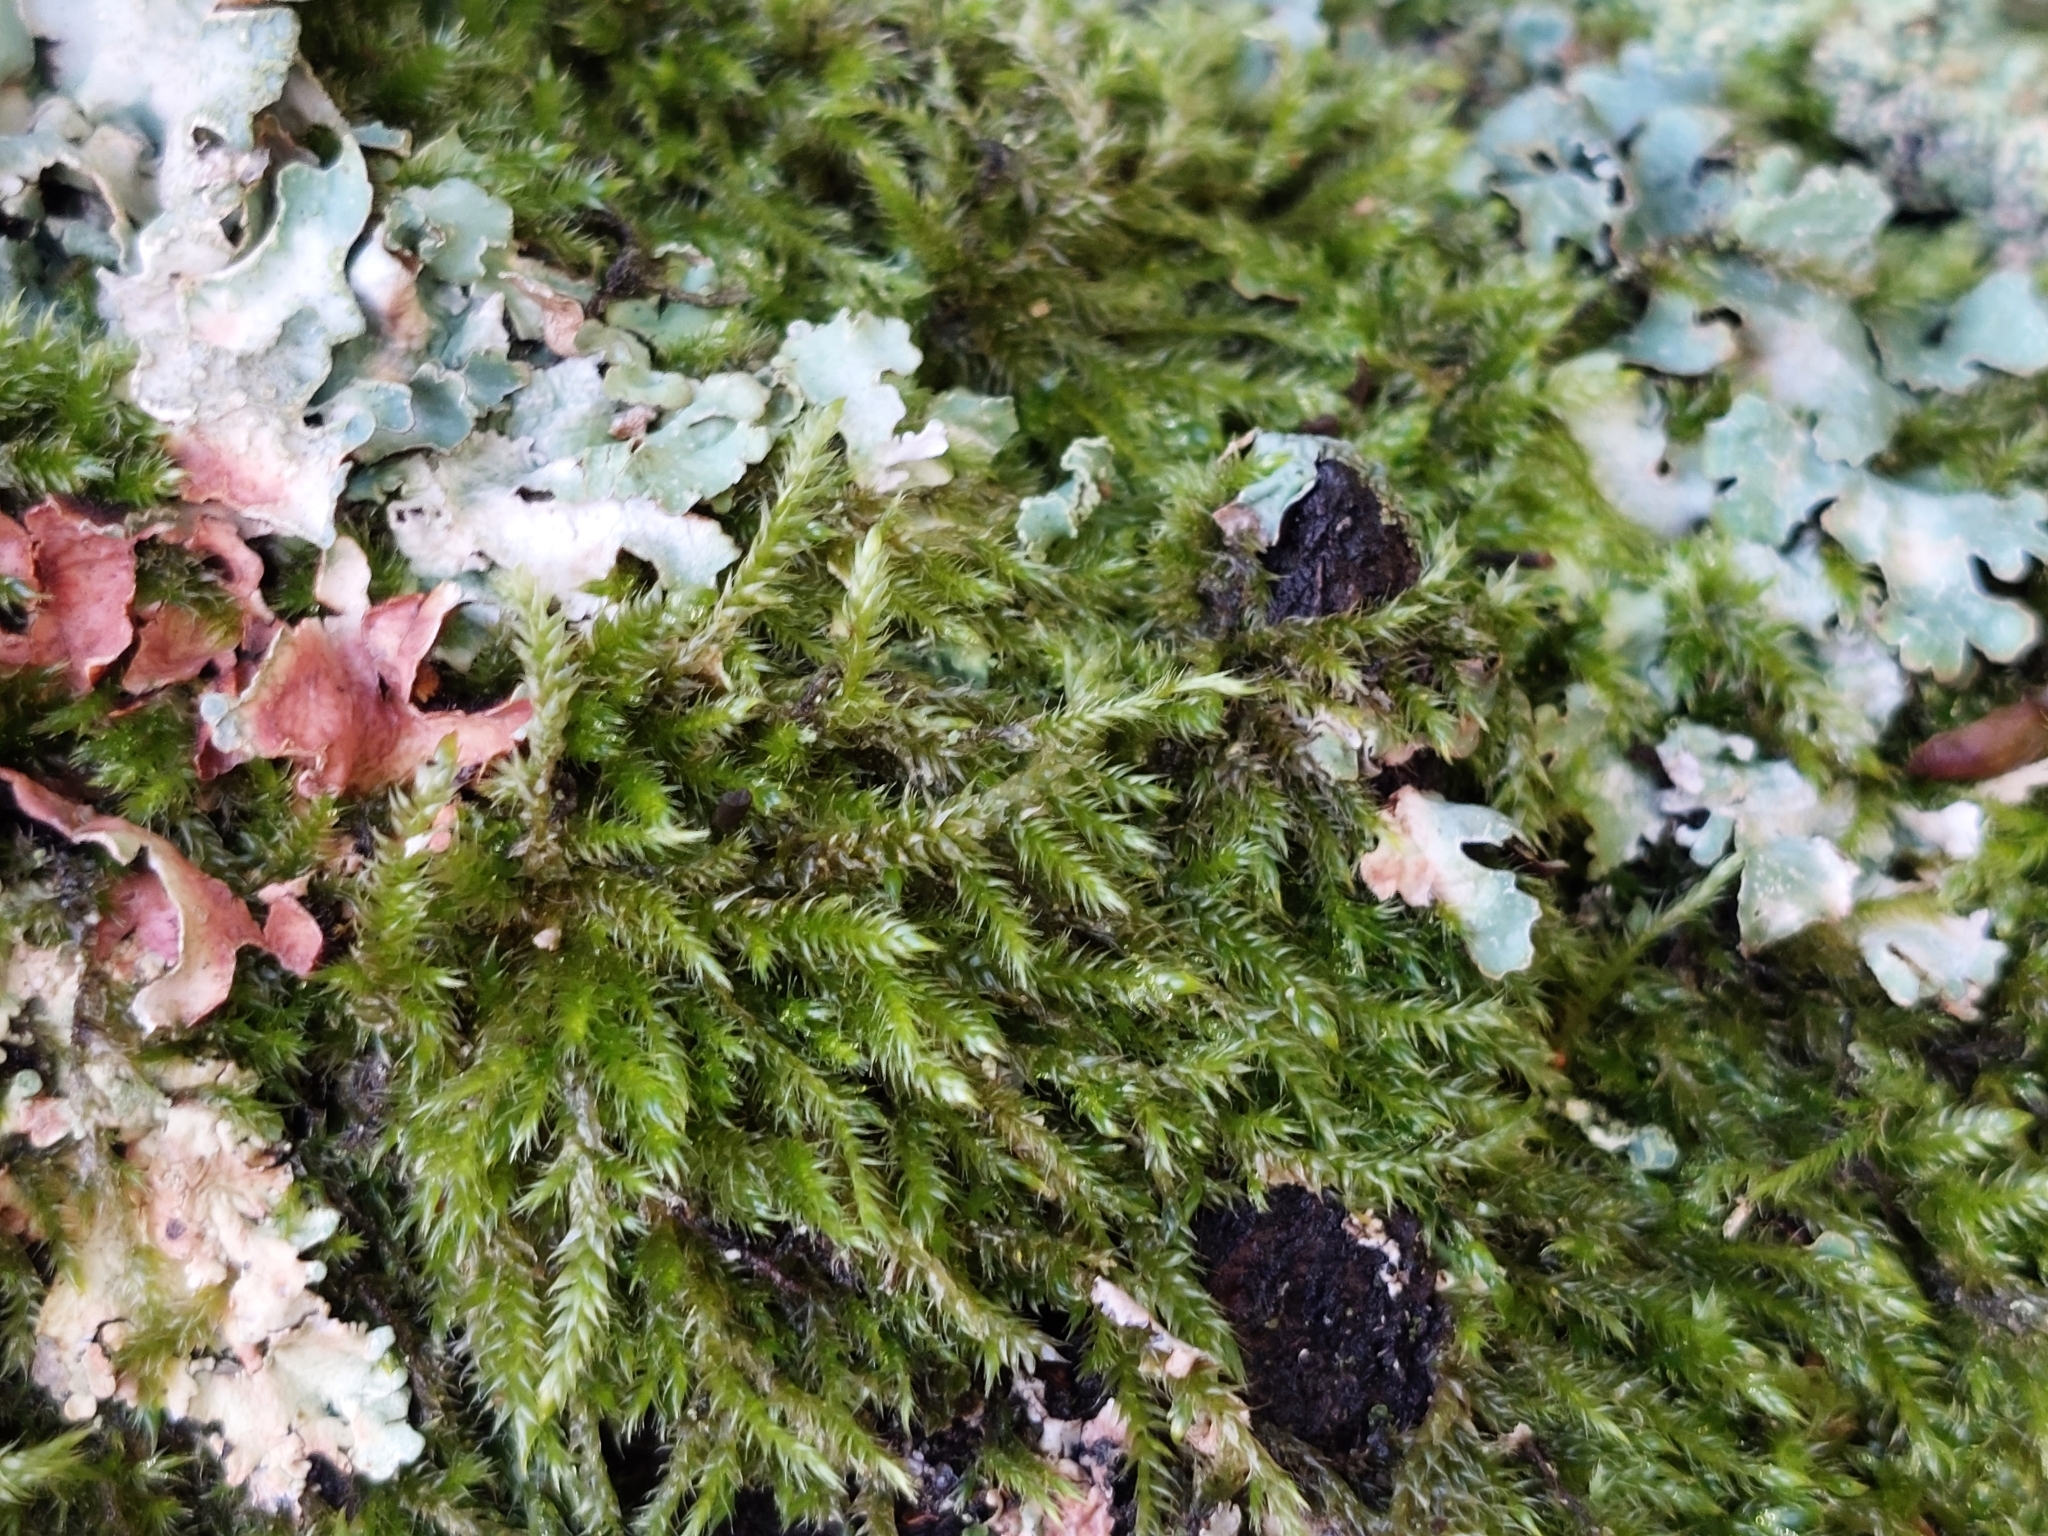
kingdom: Plantae
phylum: Bryophyta
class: Bryopsida
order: Hypnales
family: Hypnaceae
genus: Hypnum
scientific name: Hypnum cupressiforme
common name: Cypress-leaved plait-moss
